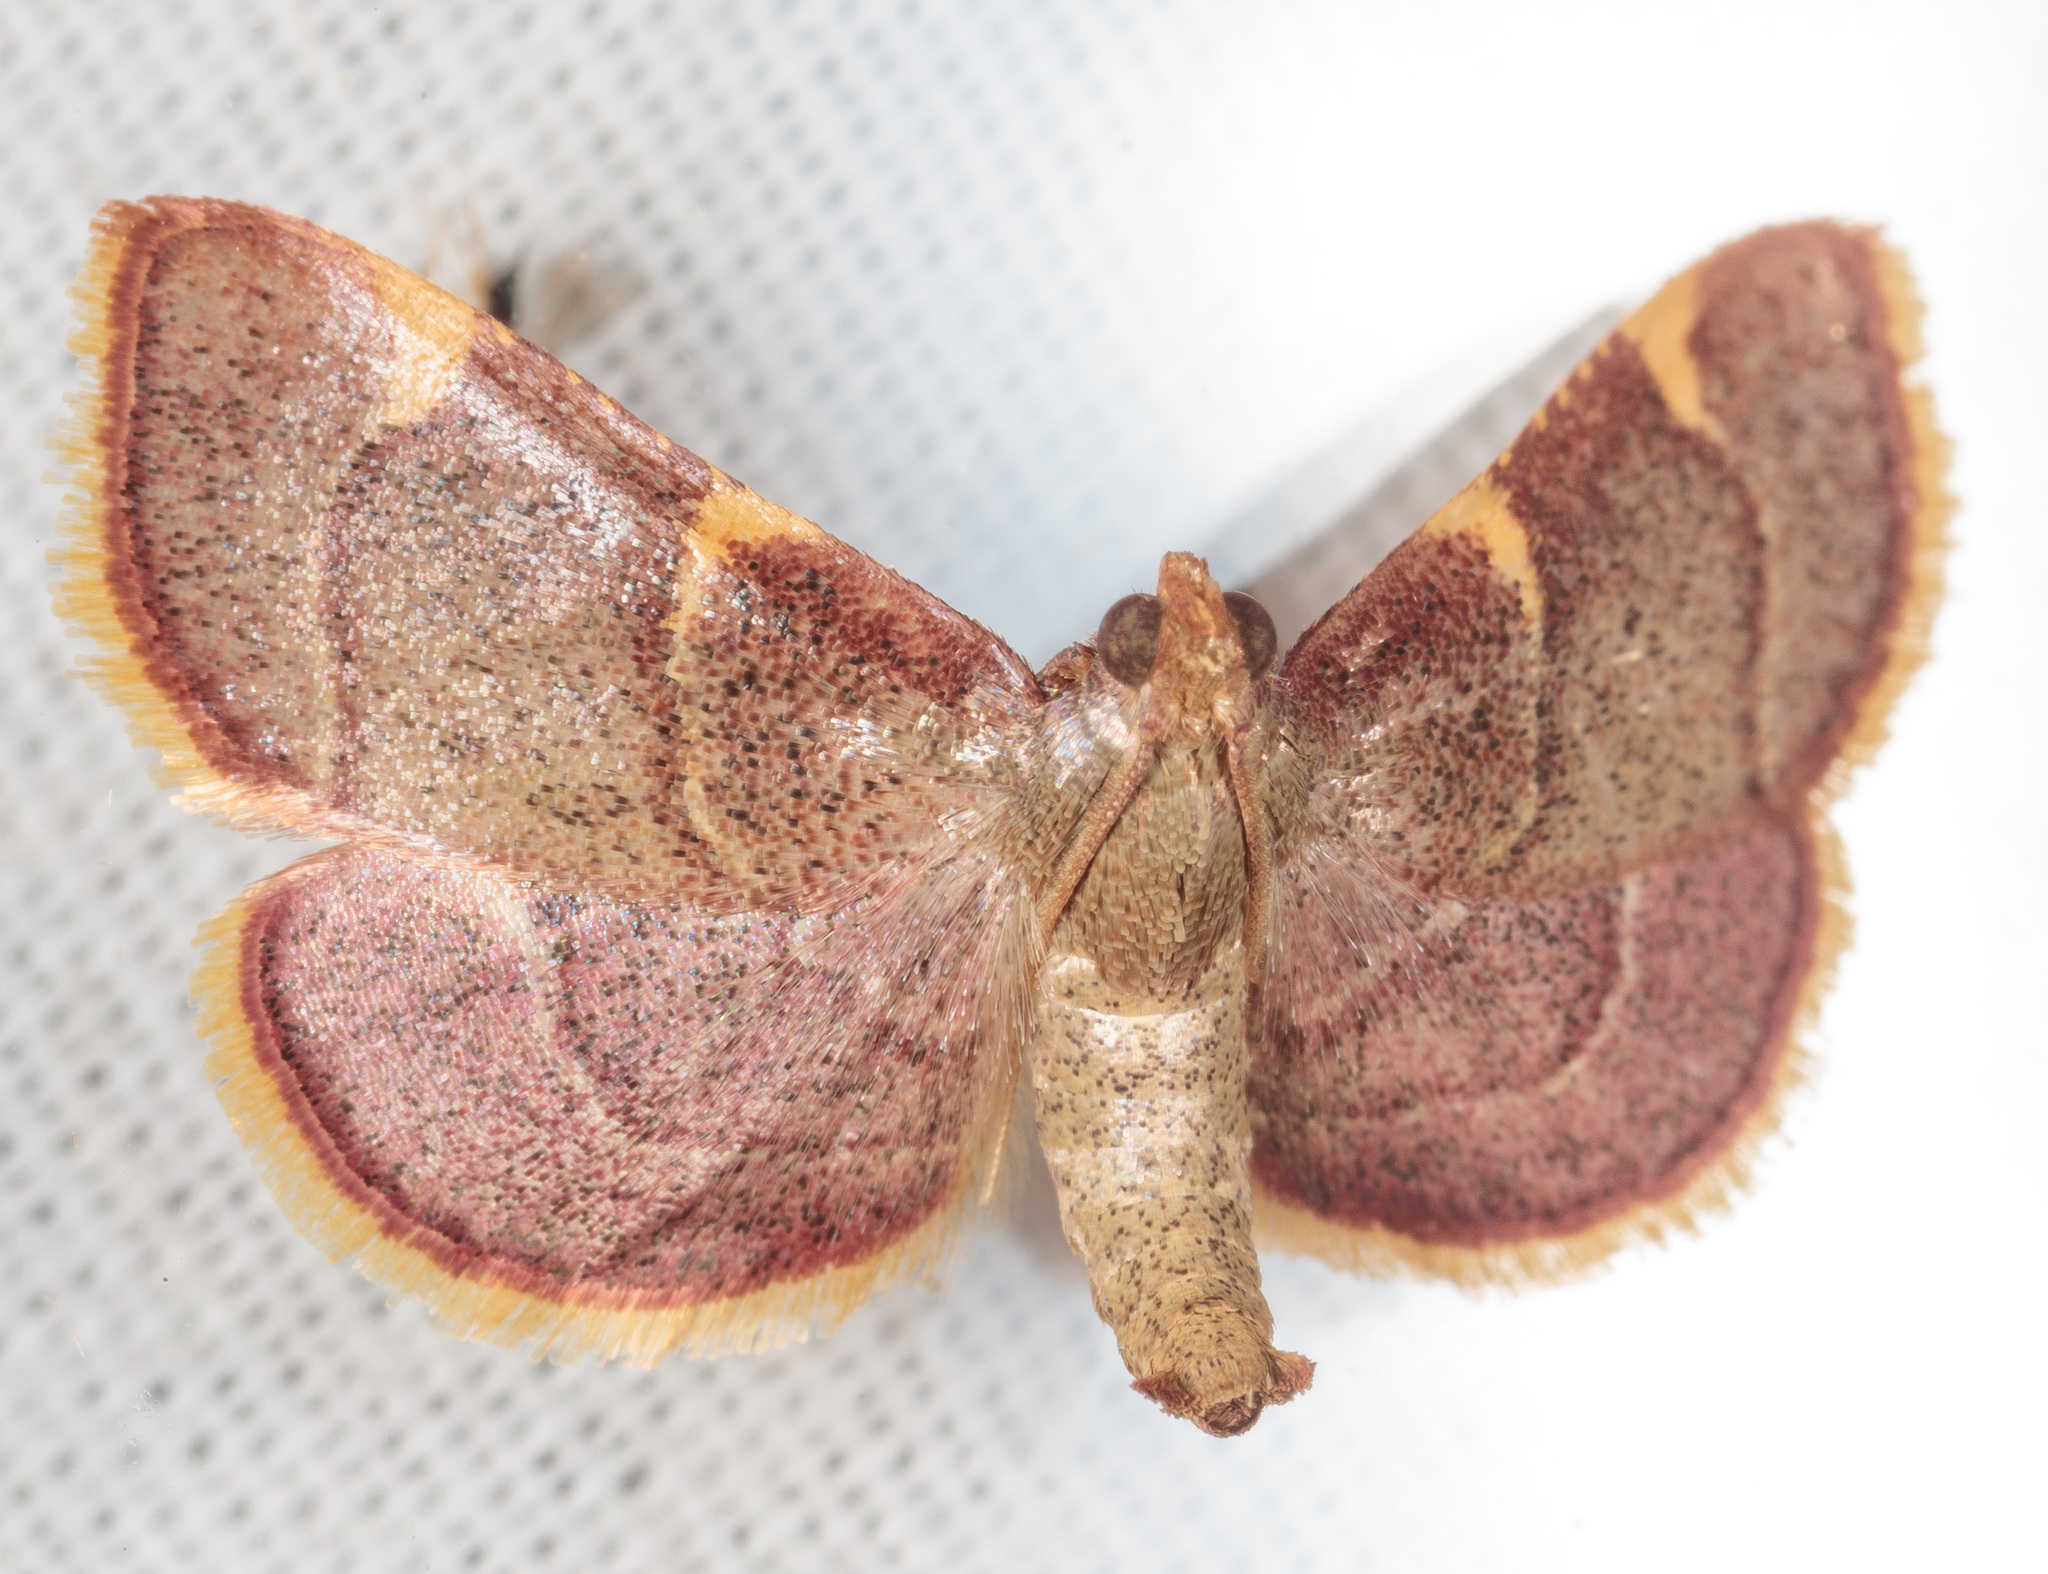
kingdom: Animalia
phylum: Arthropoda
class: Insecta
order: Lepidoptera
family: Pyralidae
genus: Hypsopygia
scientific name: Hypsopygia olinalis
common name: Yellow-fringed dolichomia moth
